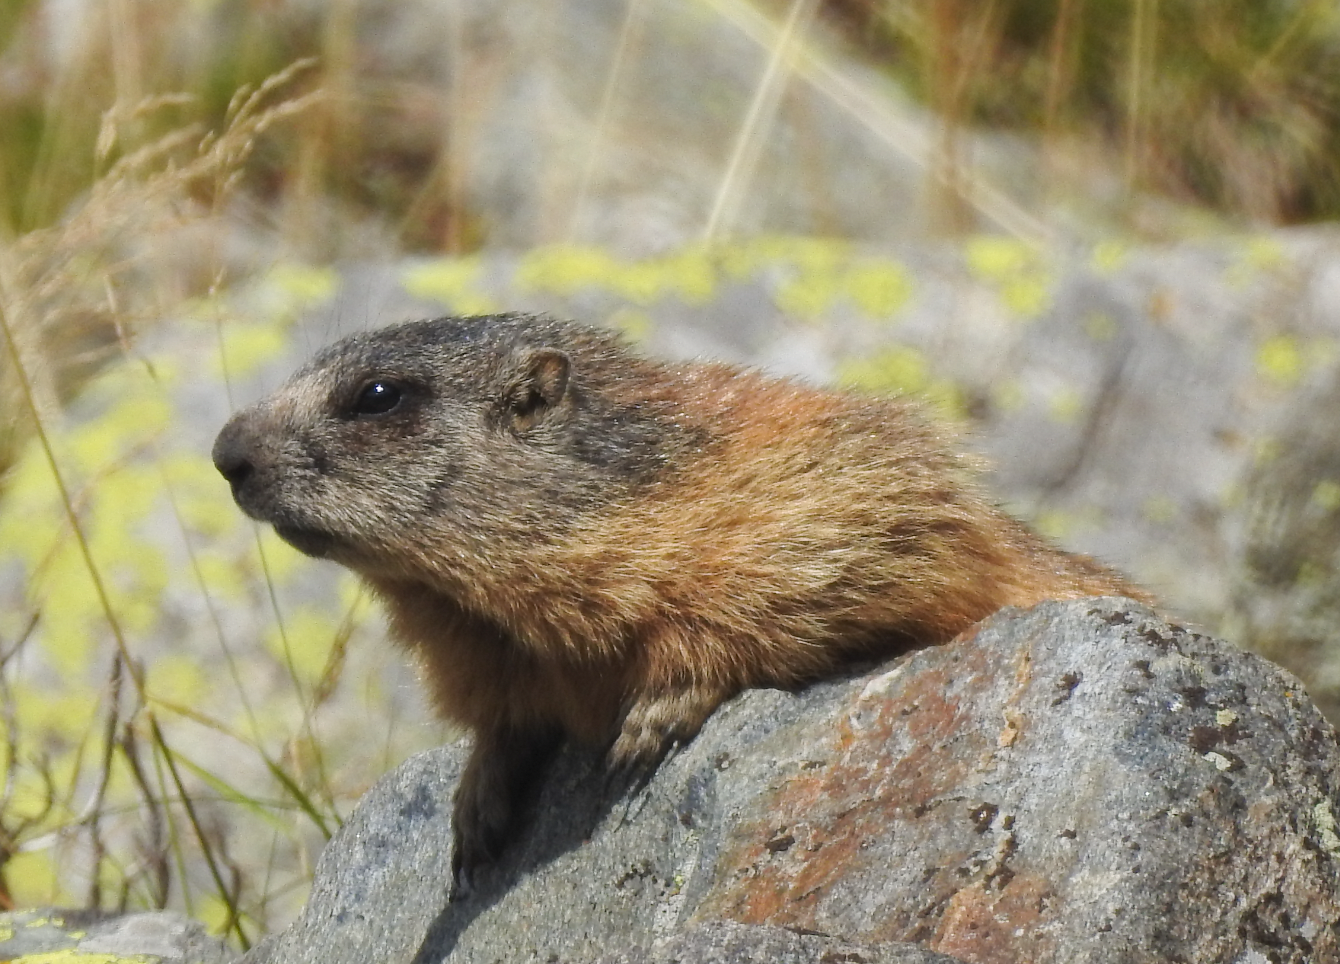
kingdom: Animalia
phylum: Chordata
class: Mammalia
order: Rodentia
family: Sciuridae
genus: Marmota
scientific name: Marmota marmota
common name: Alpine marmot
